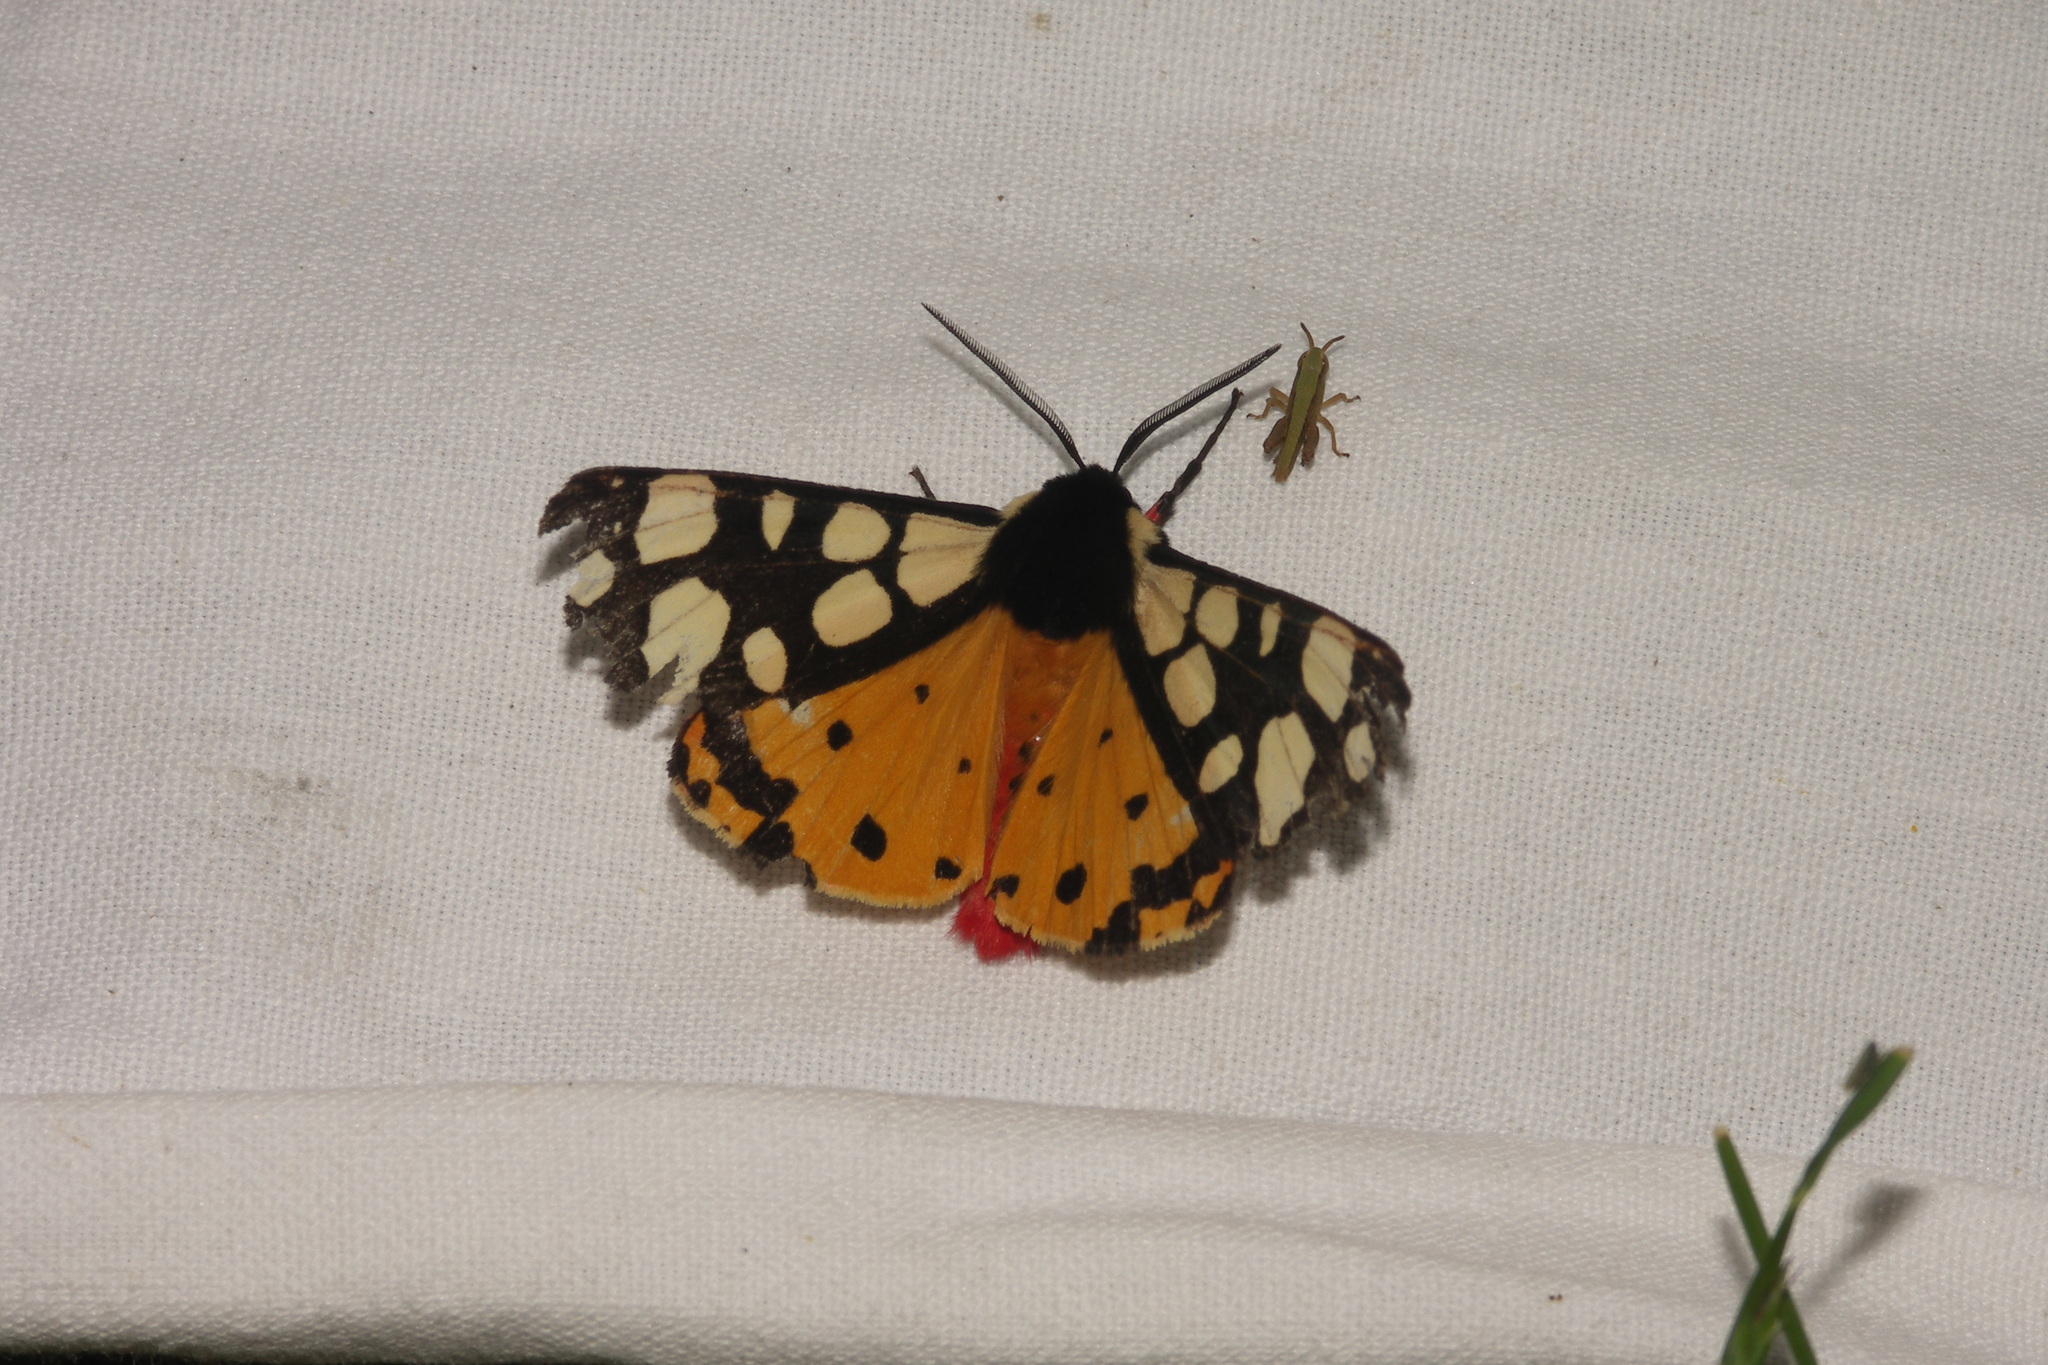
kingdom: Animalia
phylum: Arthropoda
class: Insecta
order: Lepidoptera
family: Erebidae
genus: Epicallia
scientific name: Epicallia villica
